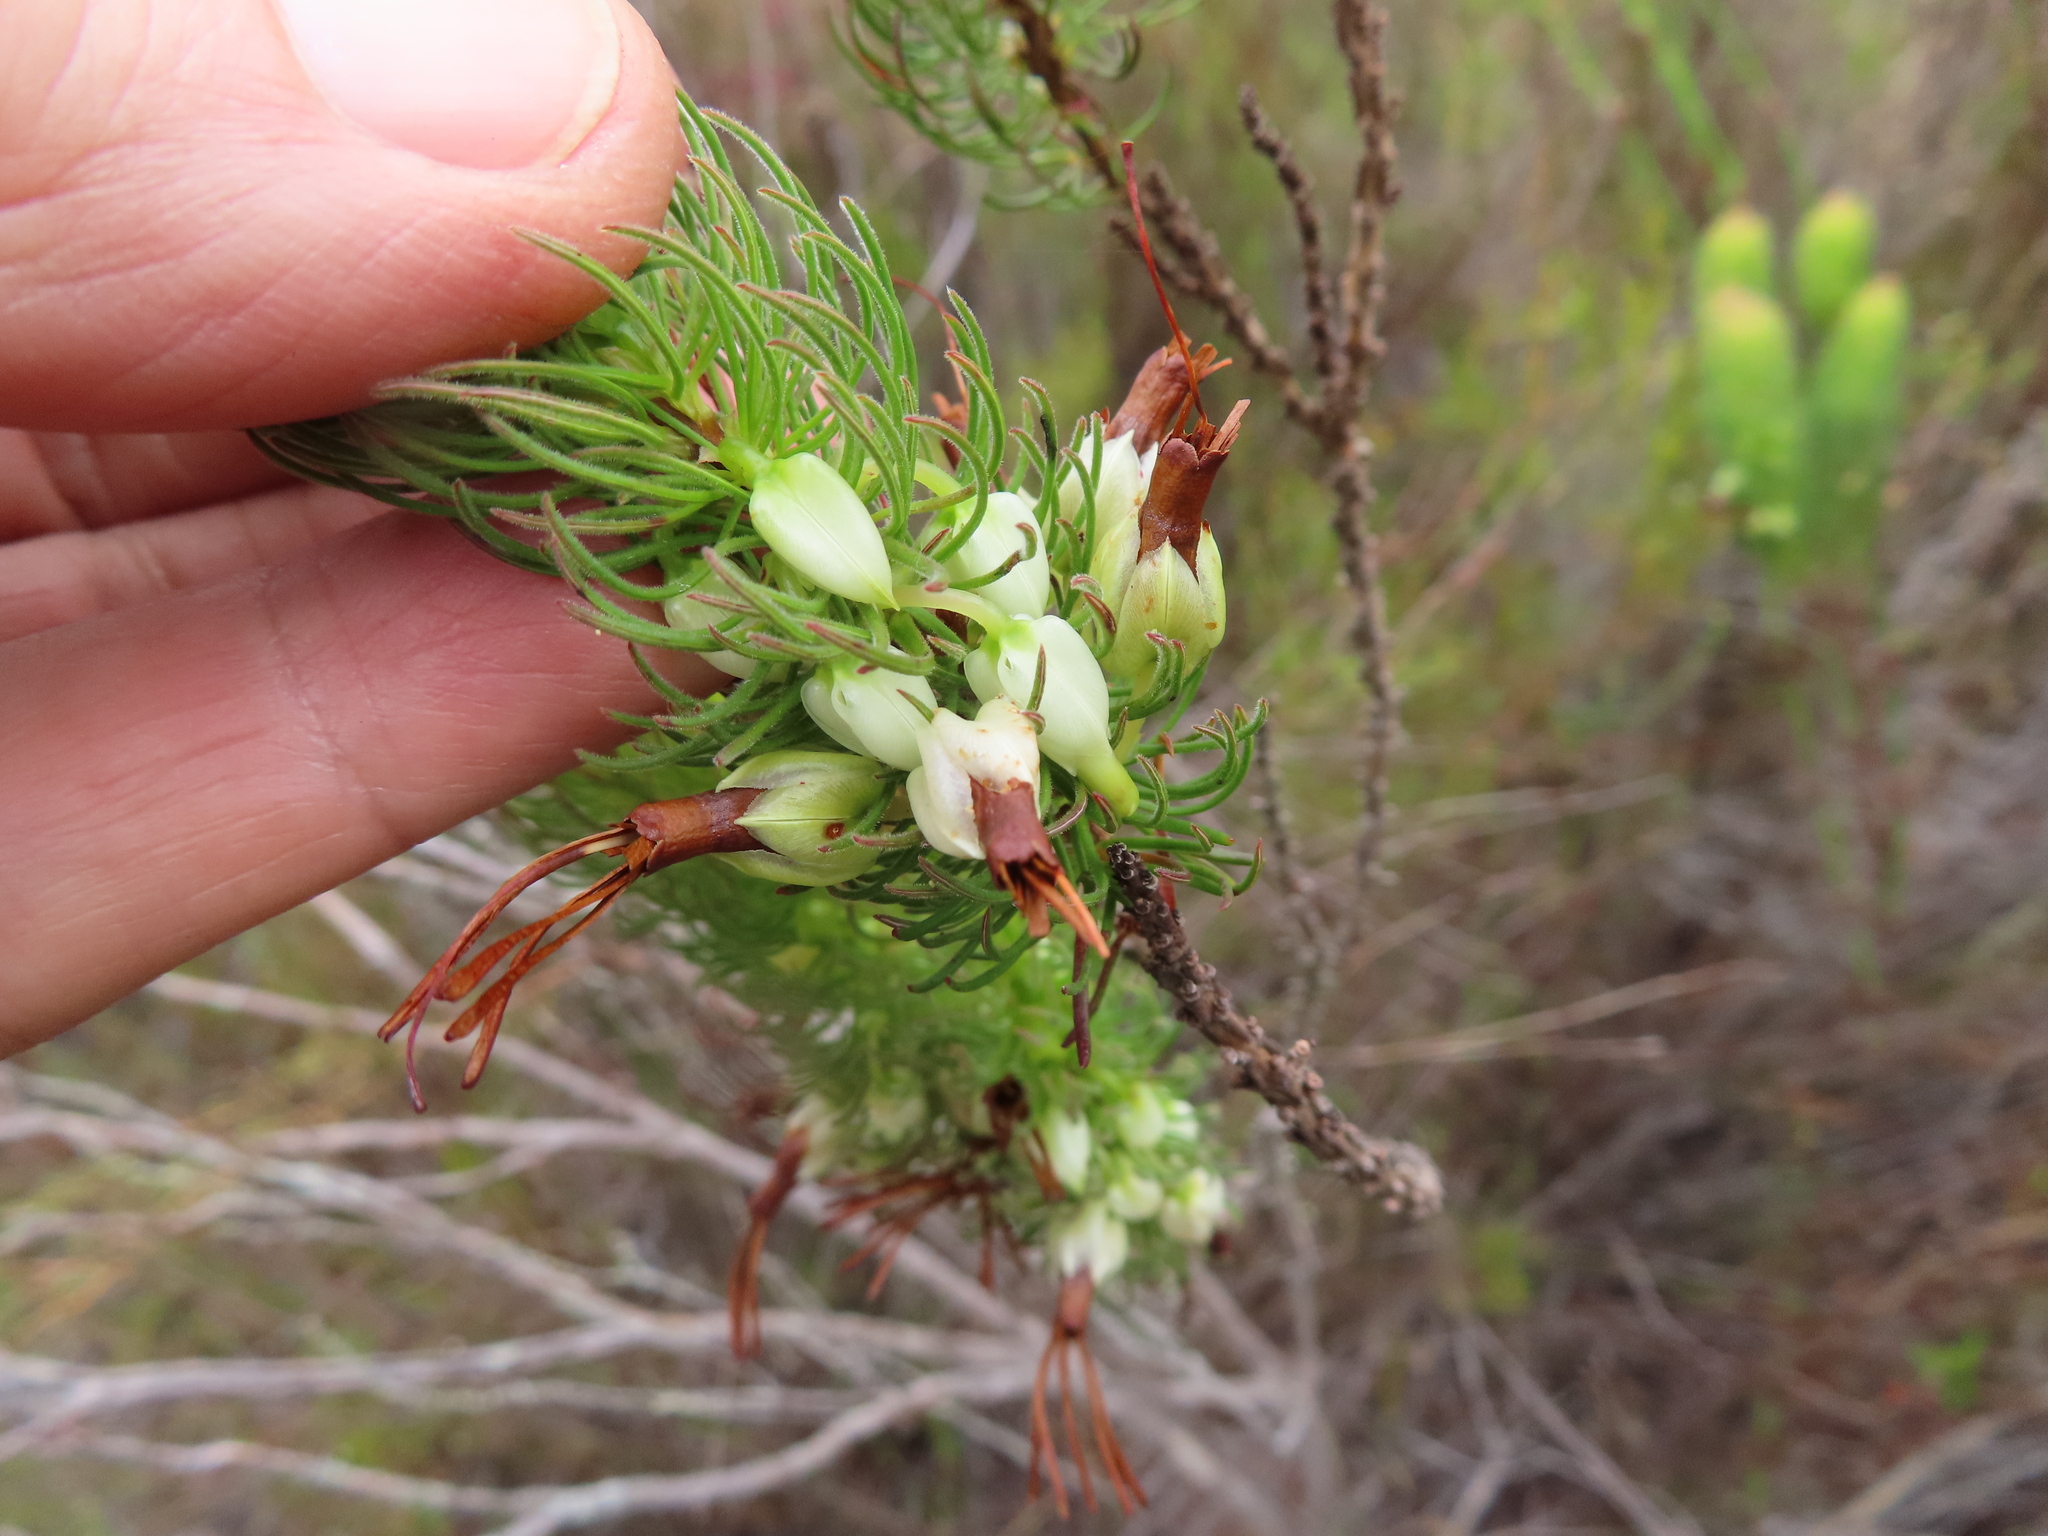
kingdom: Plantae
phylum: Tracheophyta
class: Magnoliopsida
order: Ericales
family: Ericaceae
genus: Erica
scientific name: Erica plukenetii
